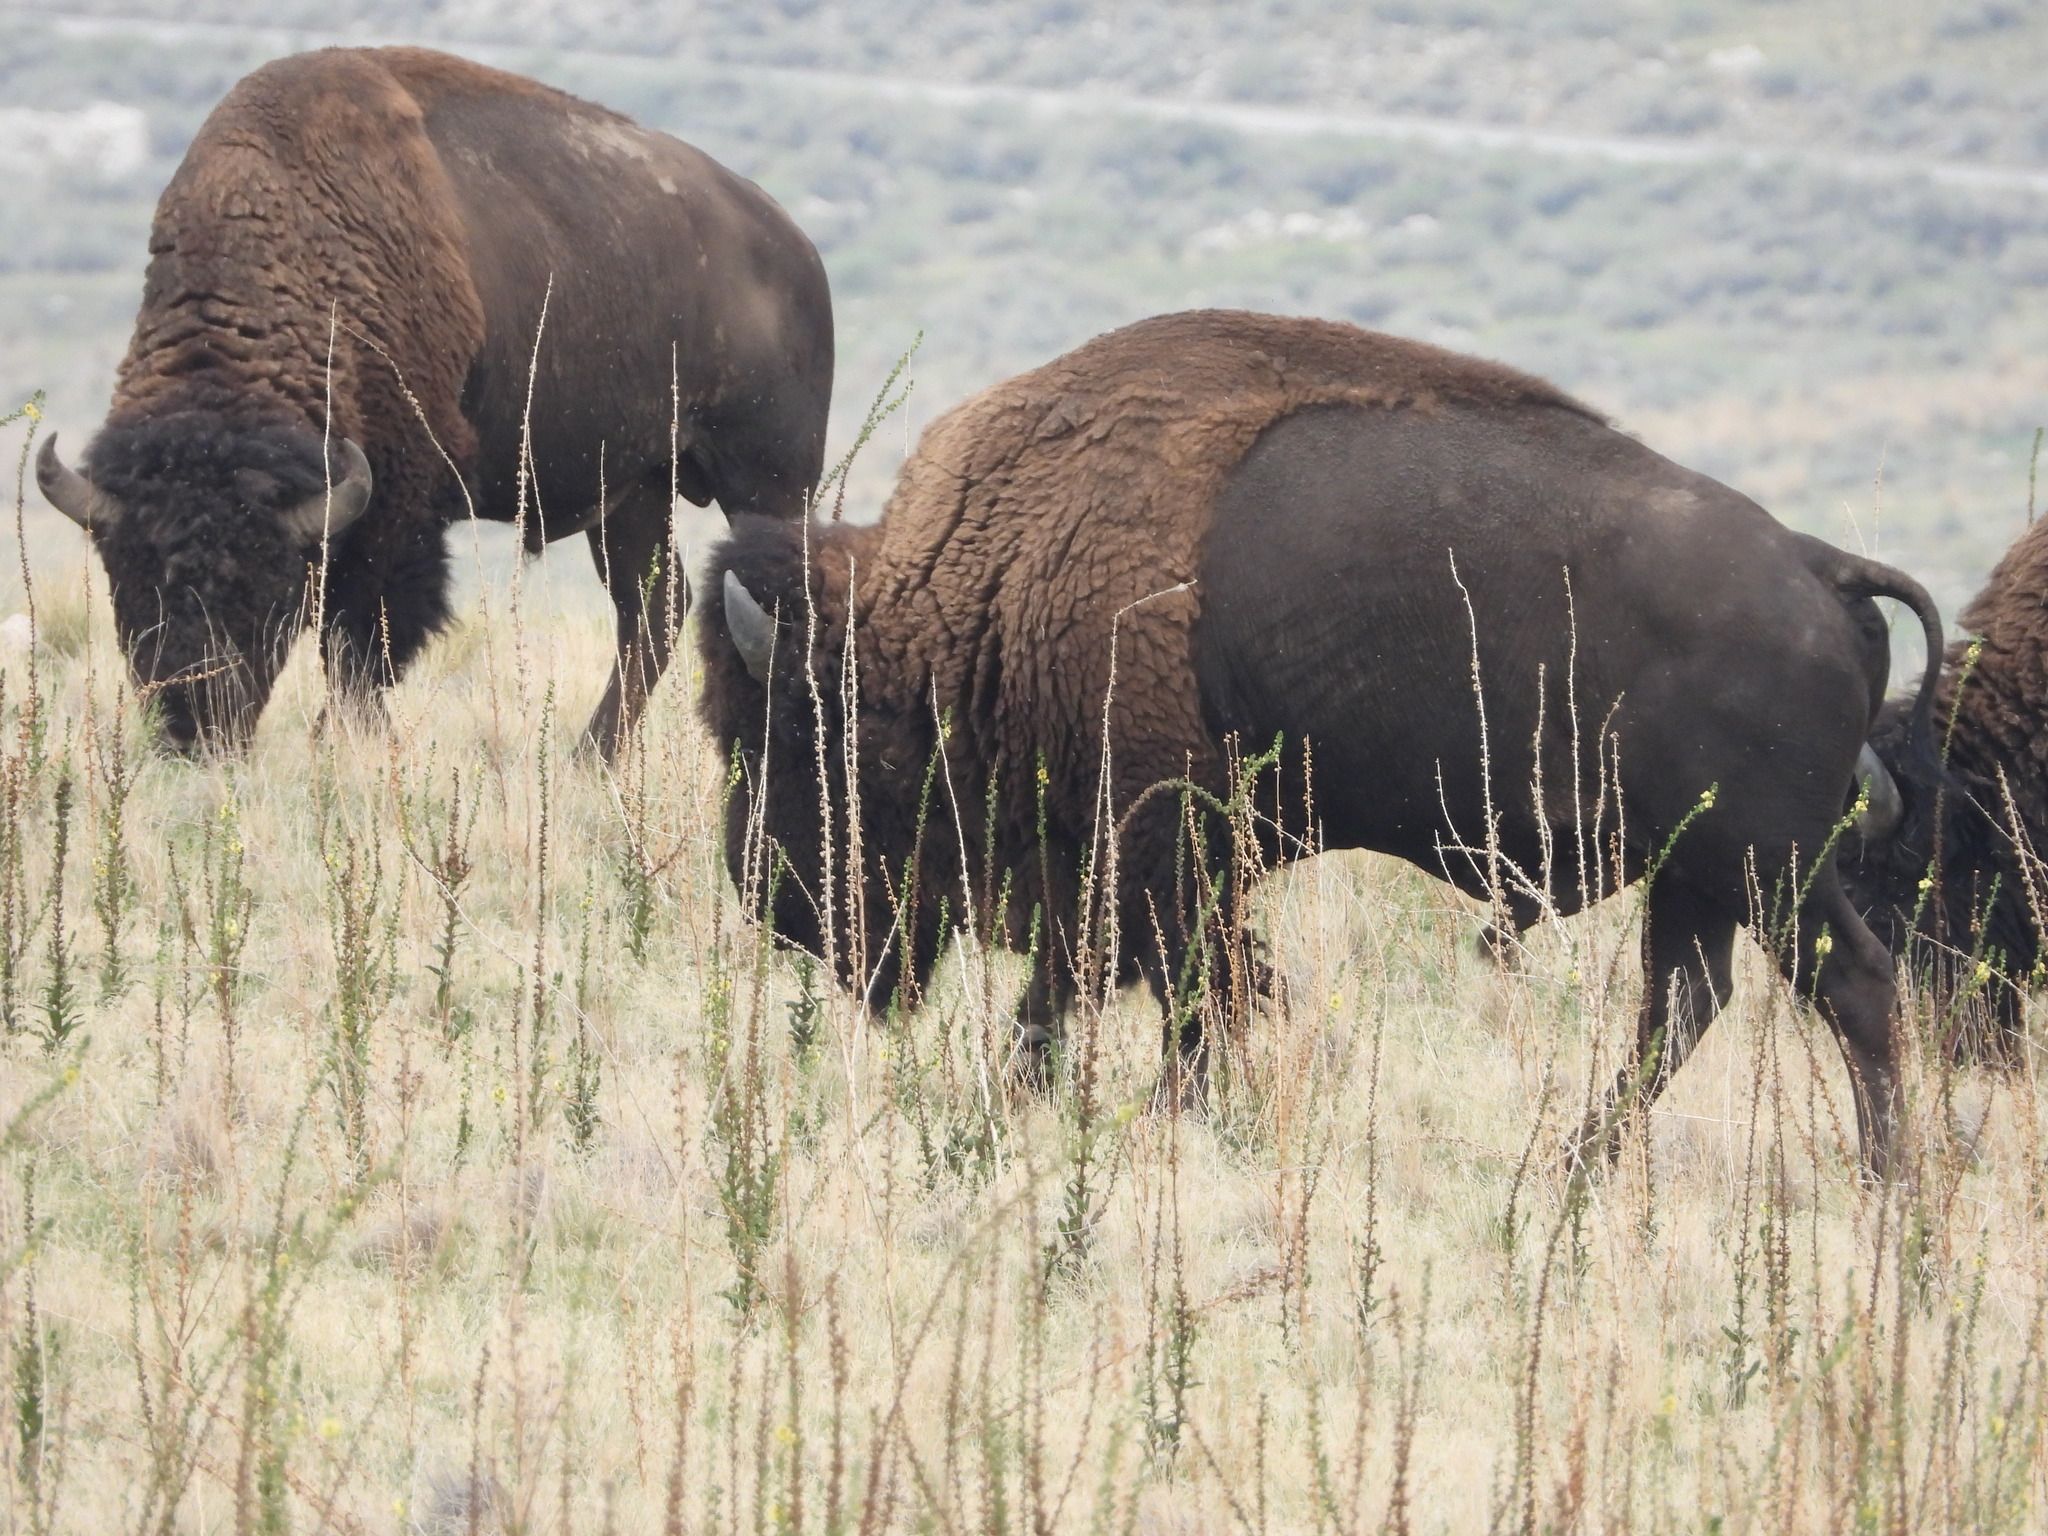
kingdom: Animalia
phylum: Chordata
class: Mammalia
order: Artiodactyla
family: Bovidae
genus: Bison
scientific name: Bison bison
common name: American bison
